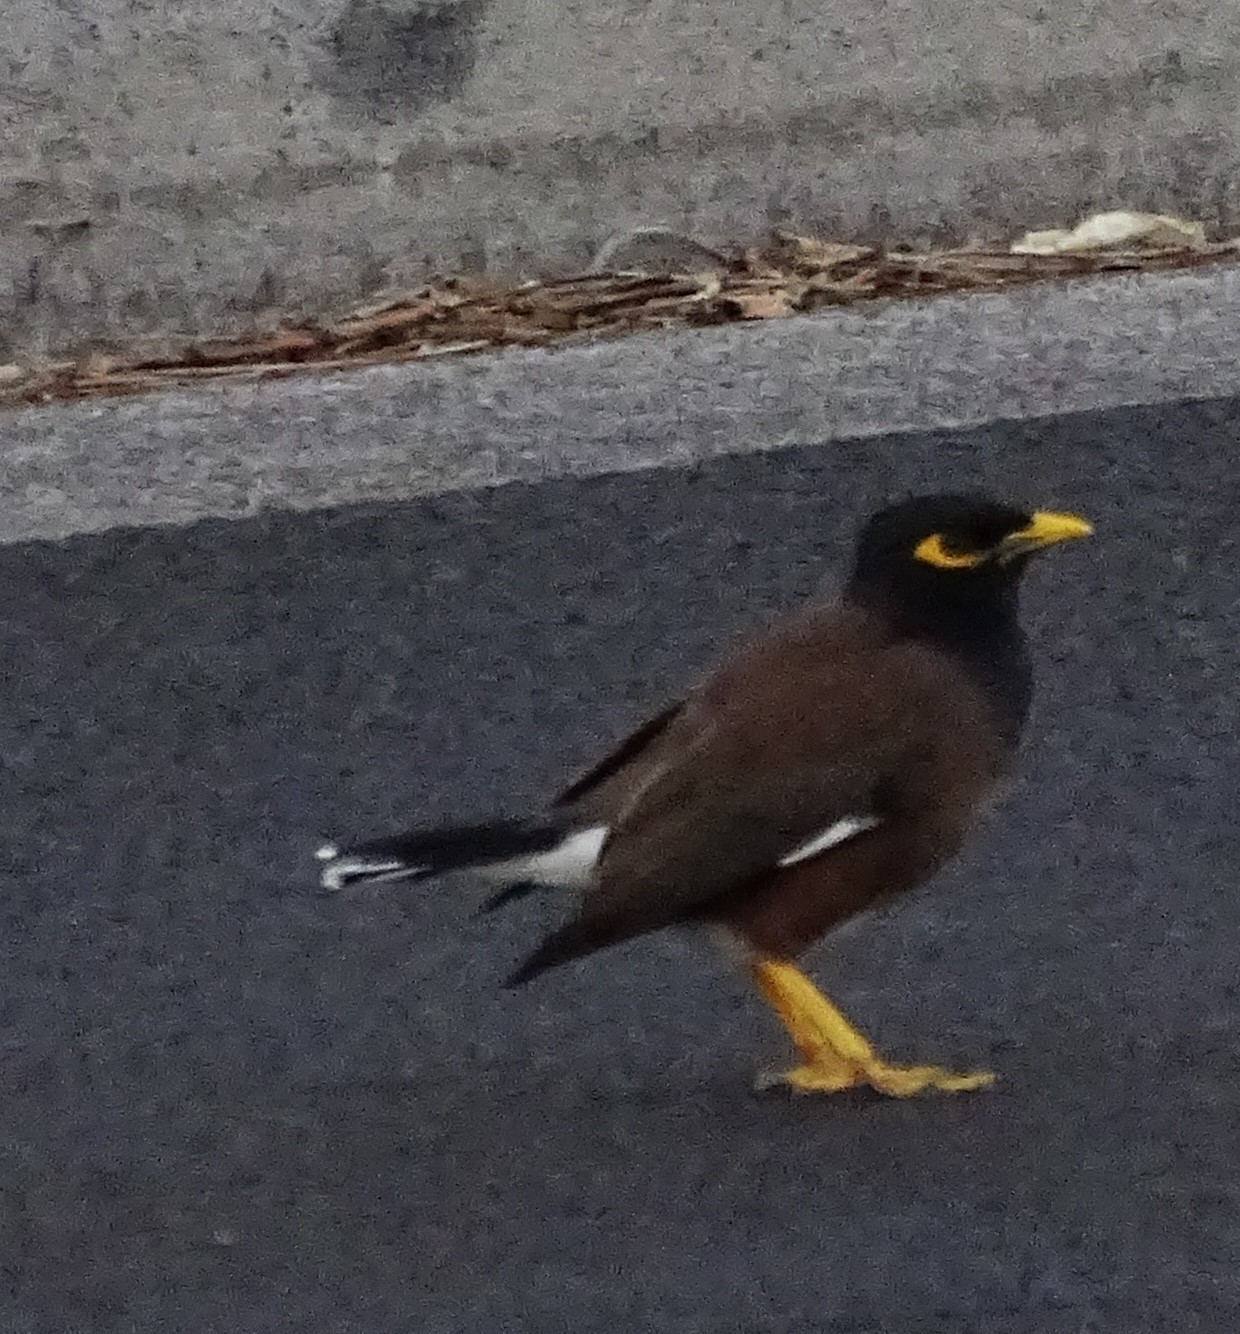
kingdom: Animalia
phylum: Chordata
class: Aves
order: Passeriformes
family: Sturnidae
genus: Acridotheres
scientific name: Acridotheres tristis
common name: Common myna
